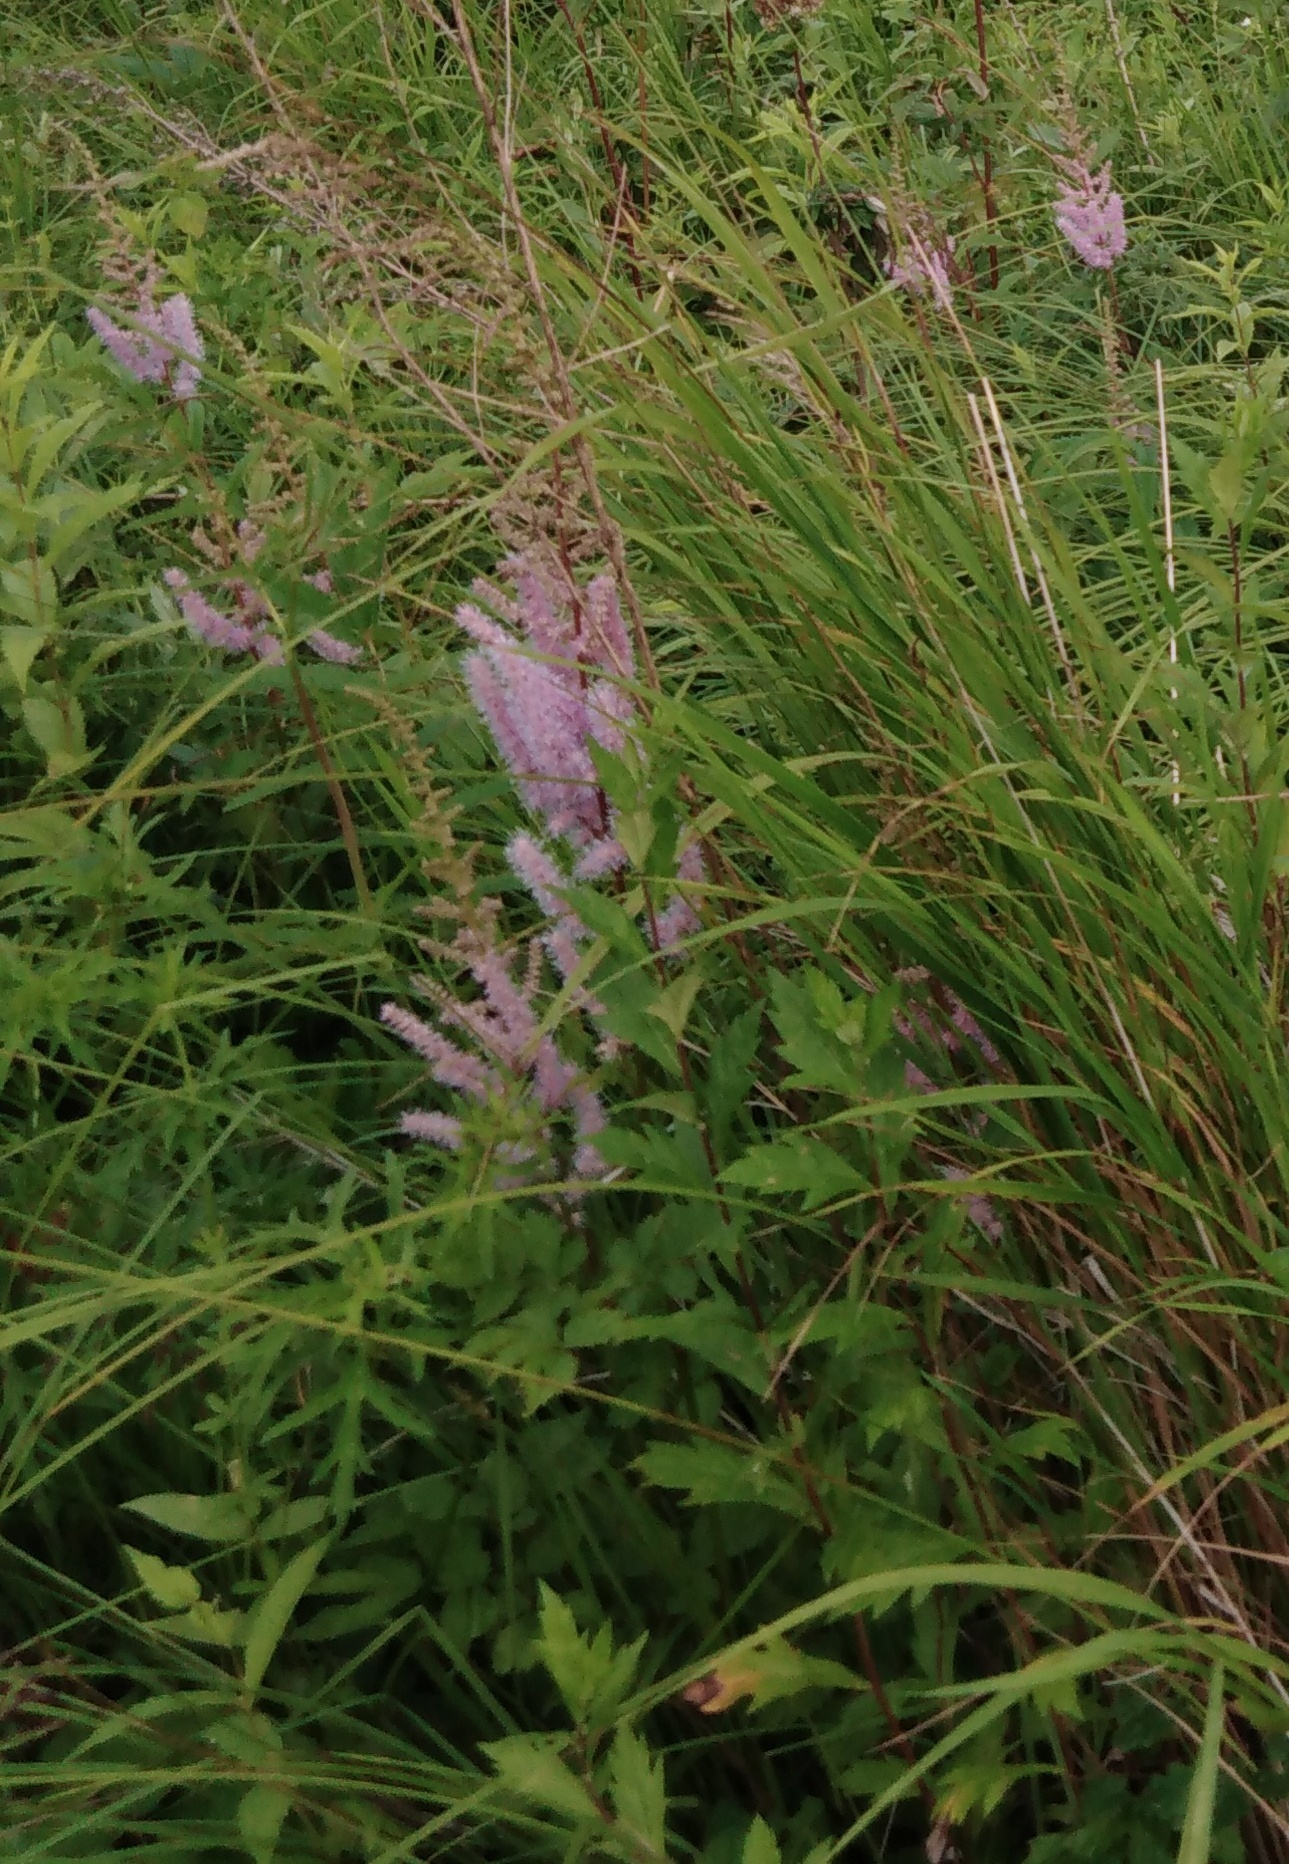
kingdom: Plantae
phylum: Tracheophyta
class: Magnoliopsida
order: Saxifragales
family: Saxifragaceae
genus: Astilbe
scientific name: Astilbe rubra
